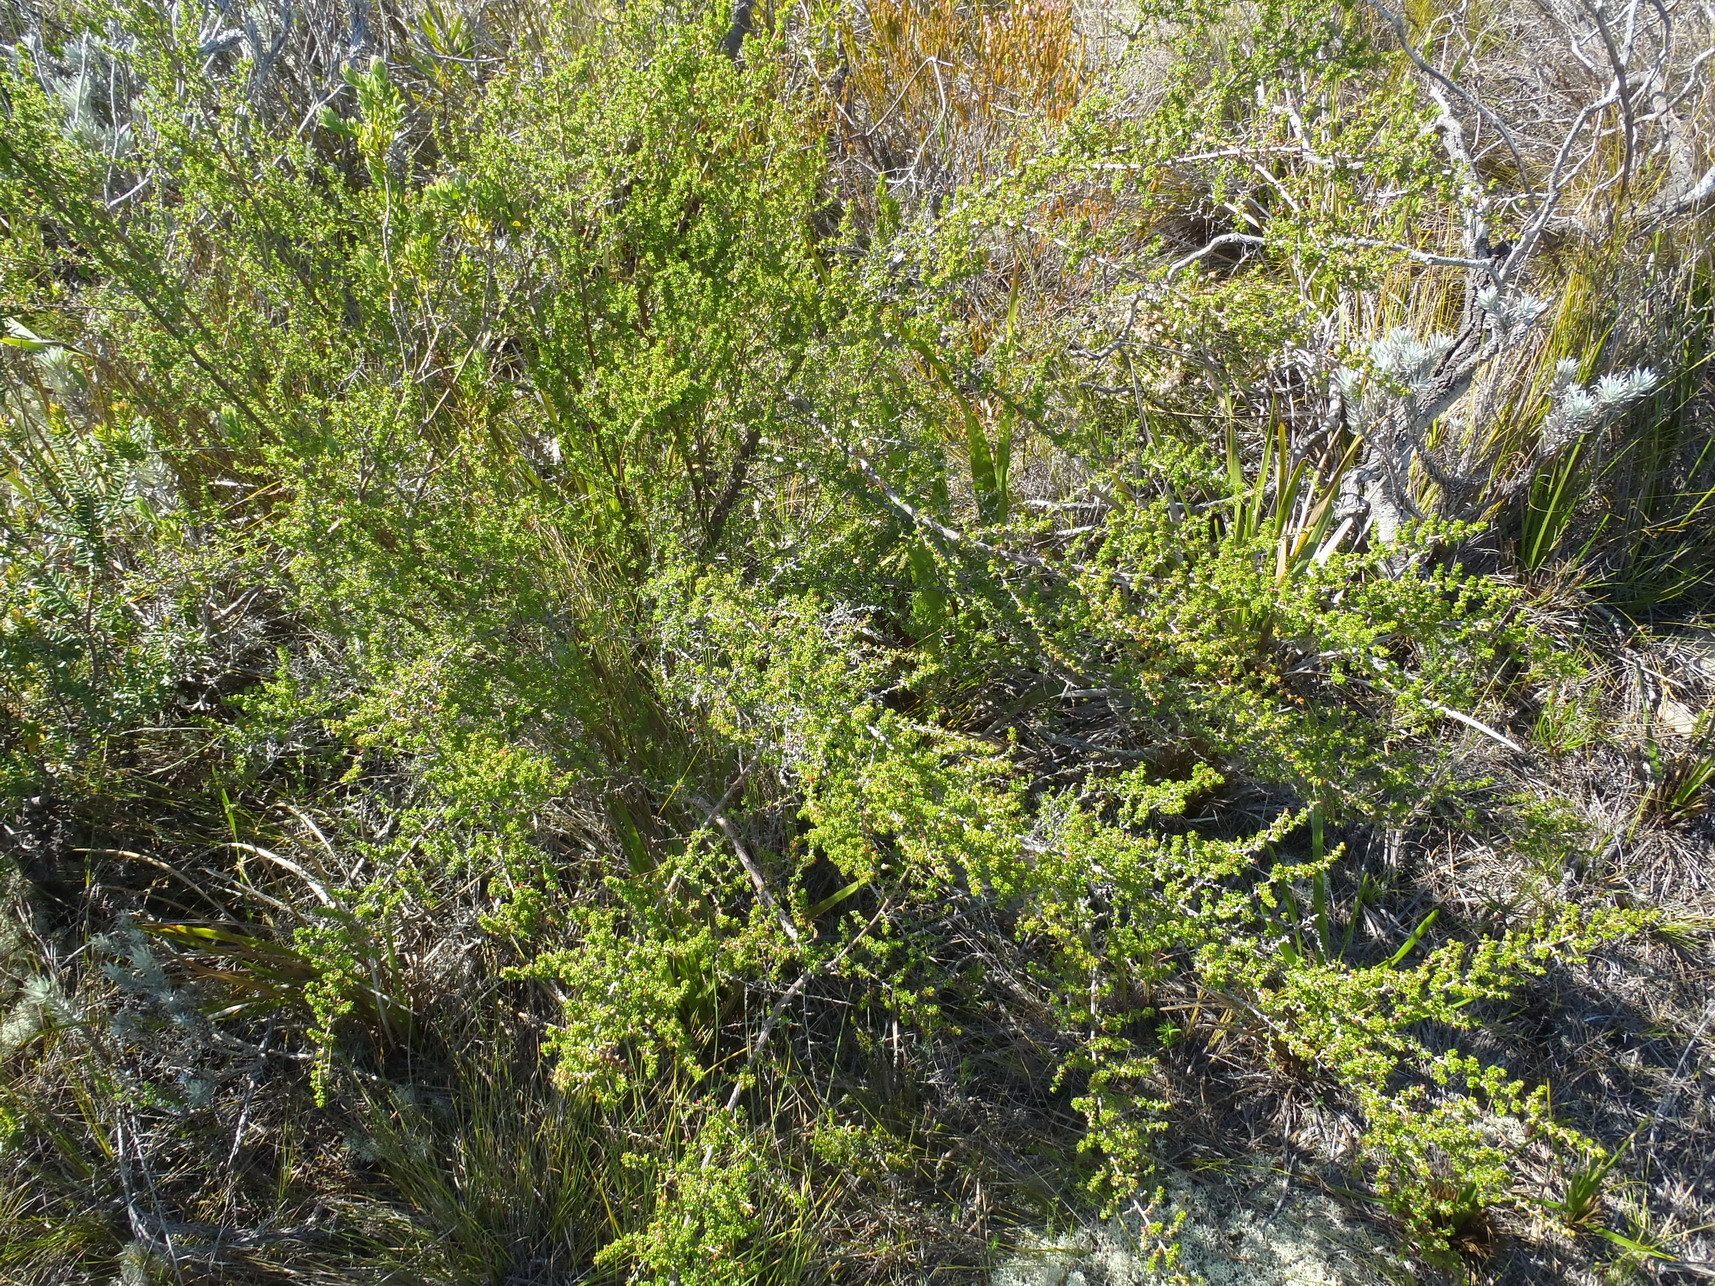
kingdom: Plantae
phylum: Tracheophyta
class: Magnoliopsida
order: Rosales
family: Rosaceae
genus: Cliffortia
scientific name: Cliffortia serpyllifolia
